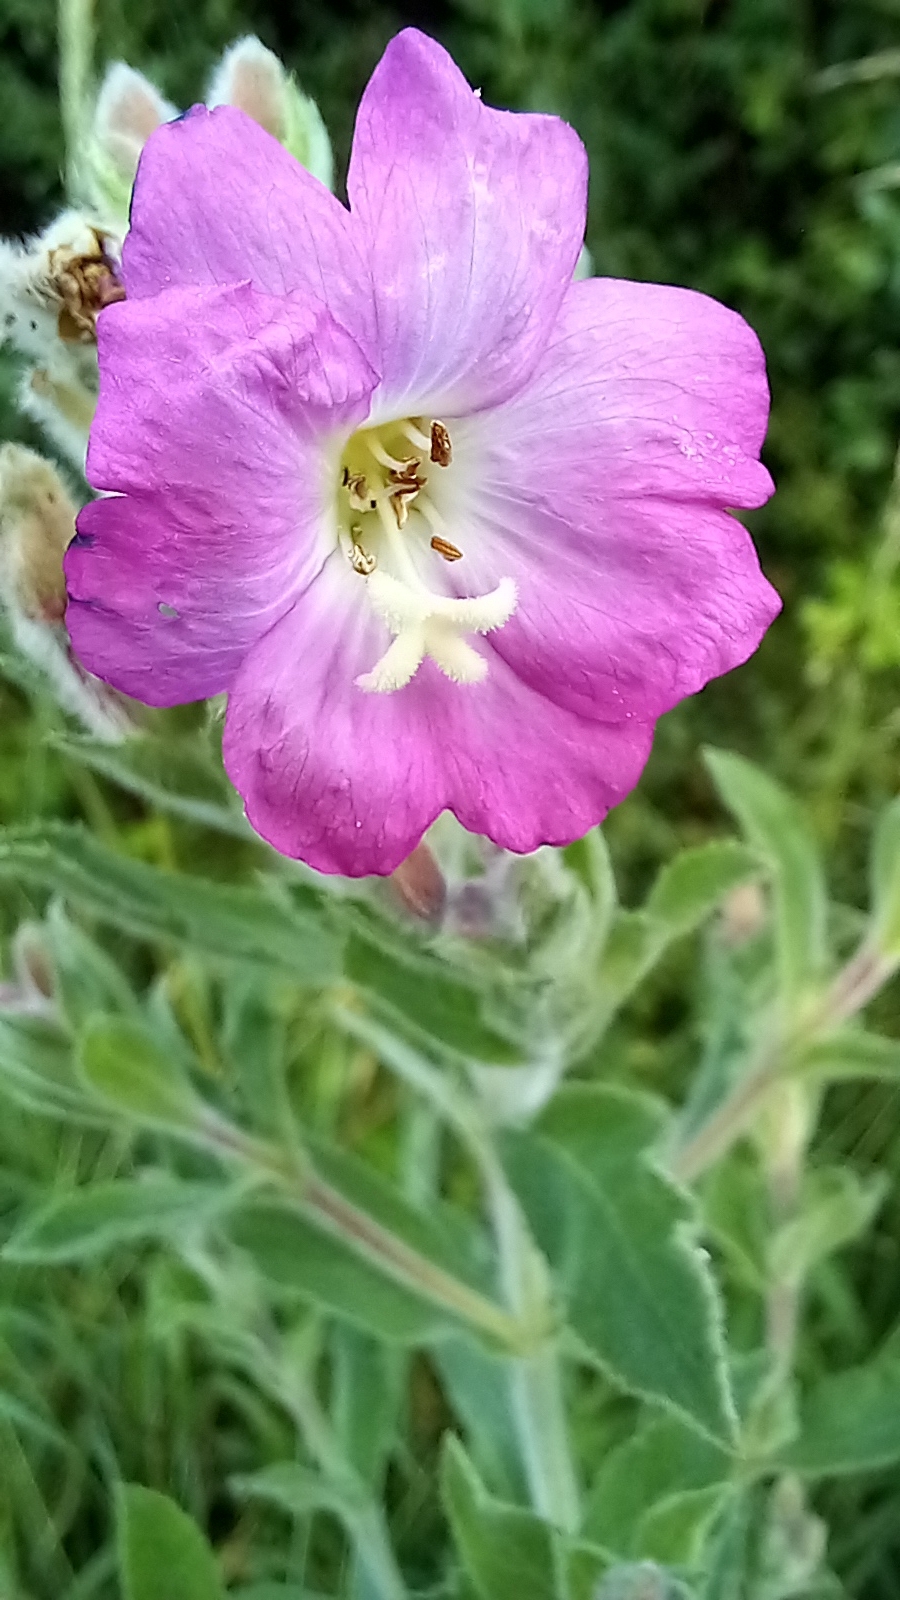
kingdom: Plantae
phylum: Tracheophyta
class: Magnoliopsida
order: Myrtales
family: Onagraceae
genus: Epilobium
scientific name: Epilobium hirsutum
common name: Great willowherb
